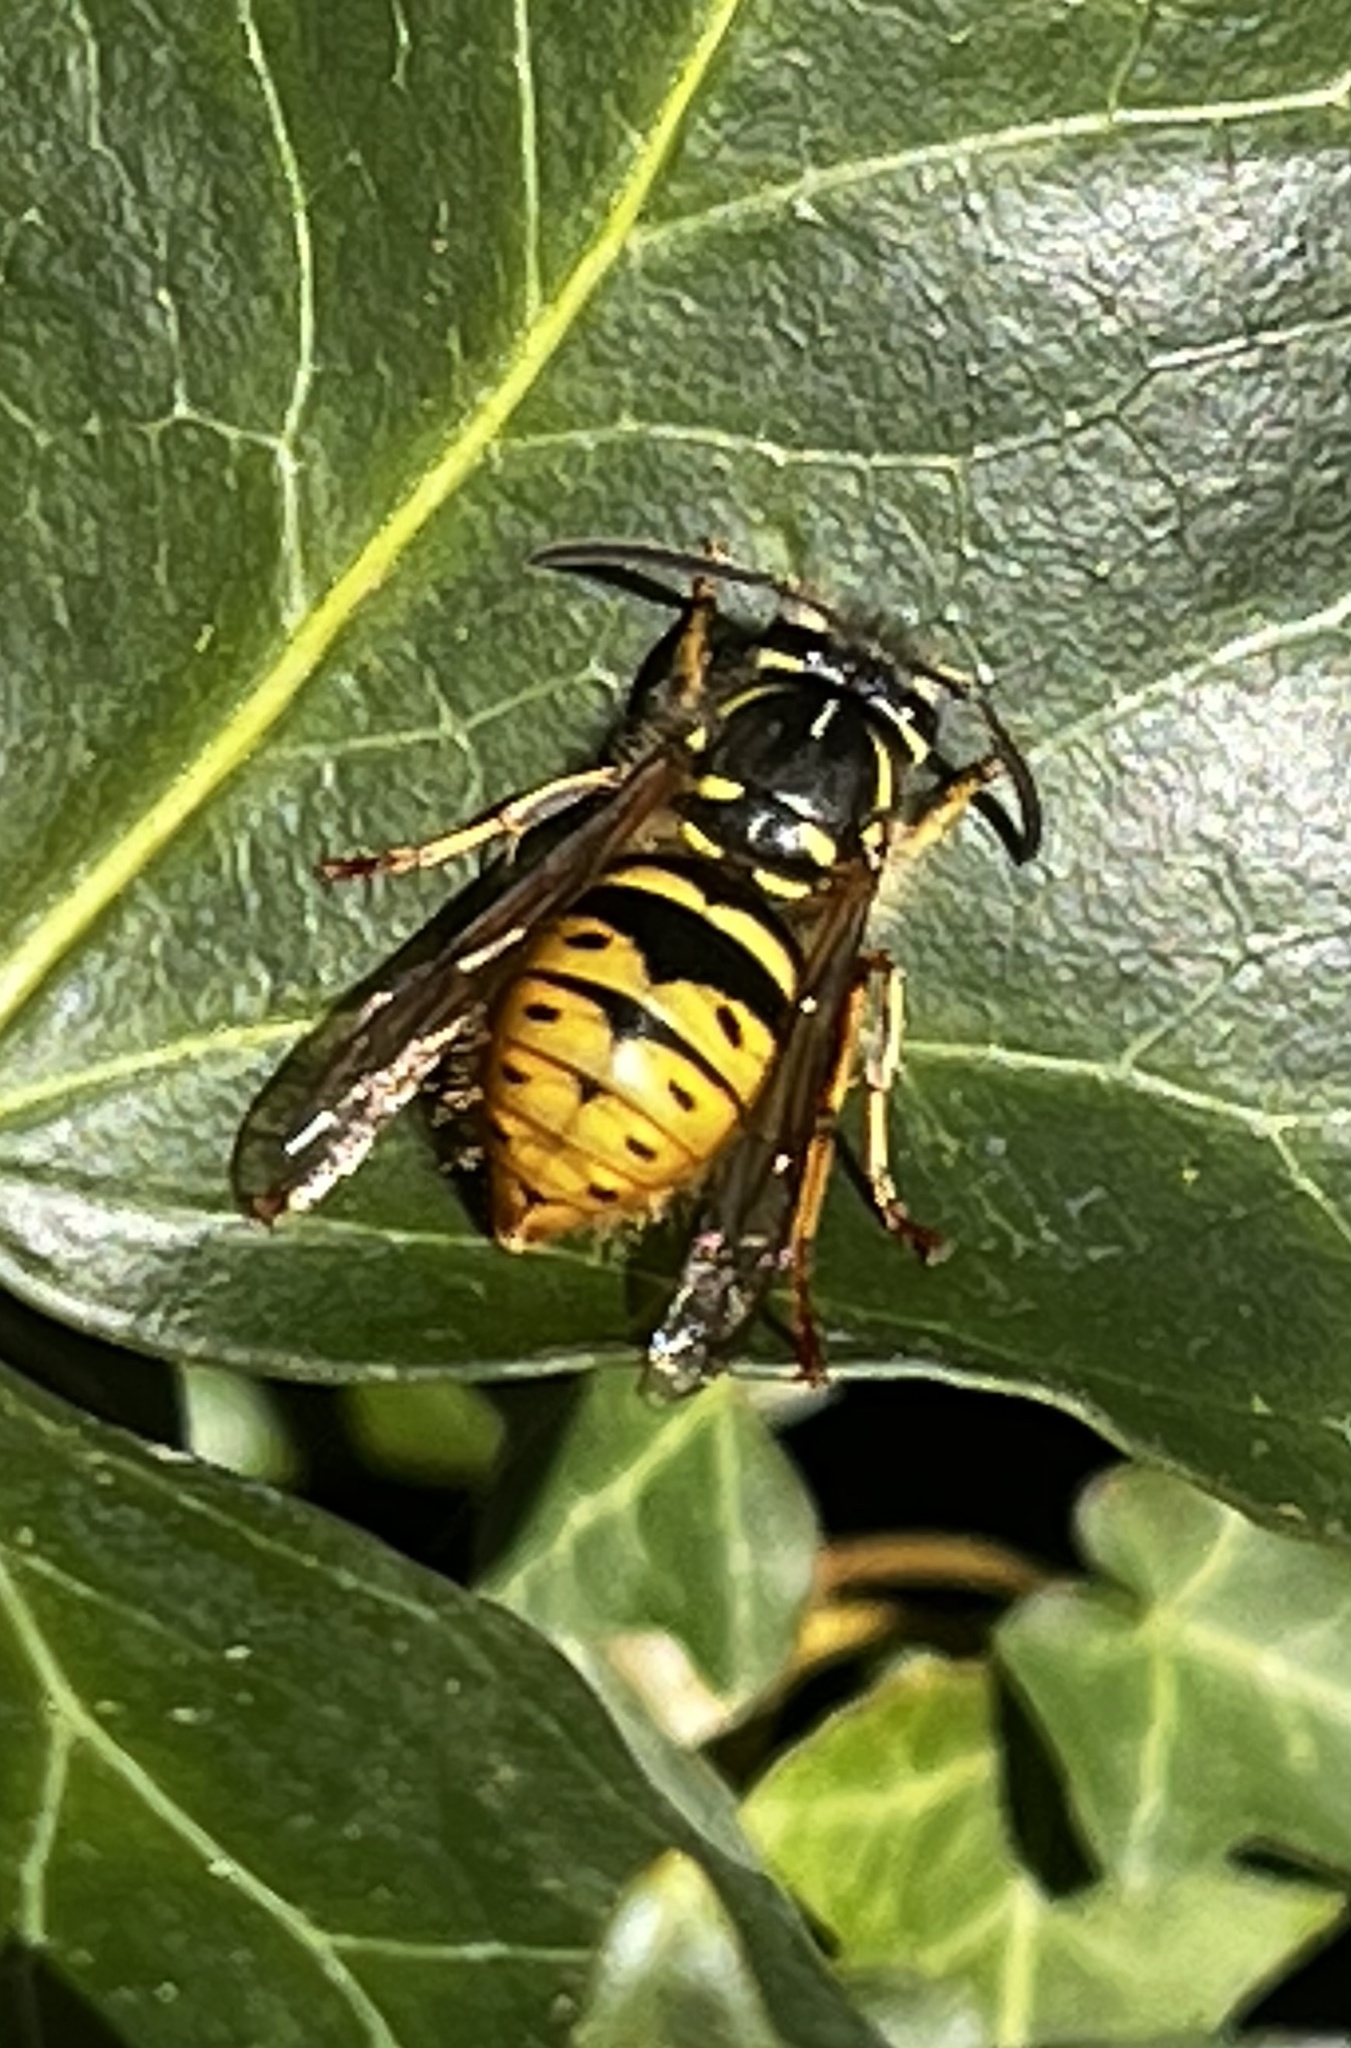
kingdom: Animalia
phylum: Arthropoda
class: Insecta
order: Hymenoptera
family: Vespidae
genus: Vespula
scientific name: Vespula vulgaris
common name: Common wasp
